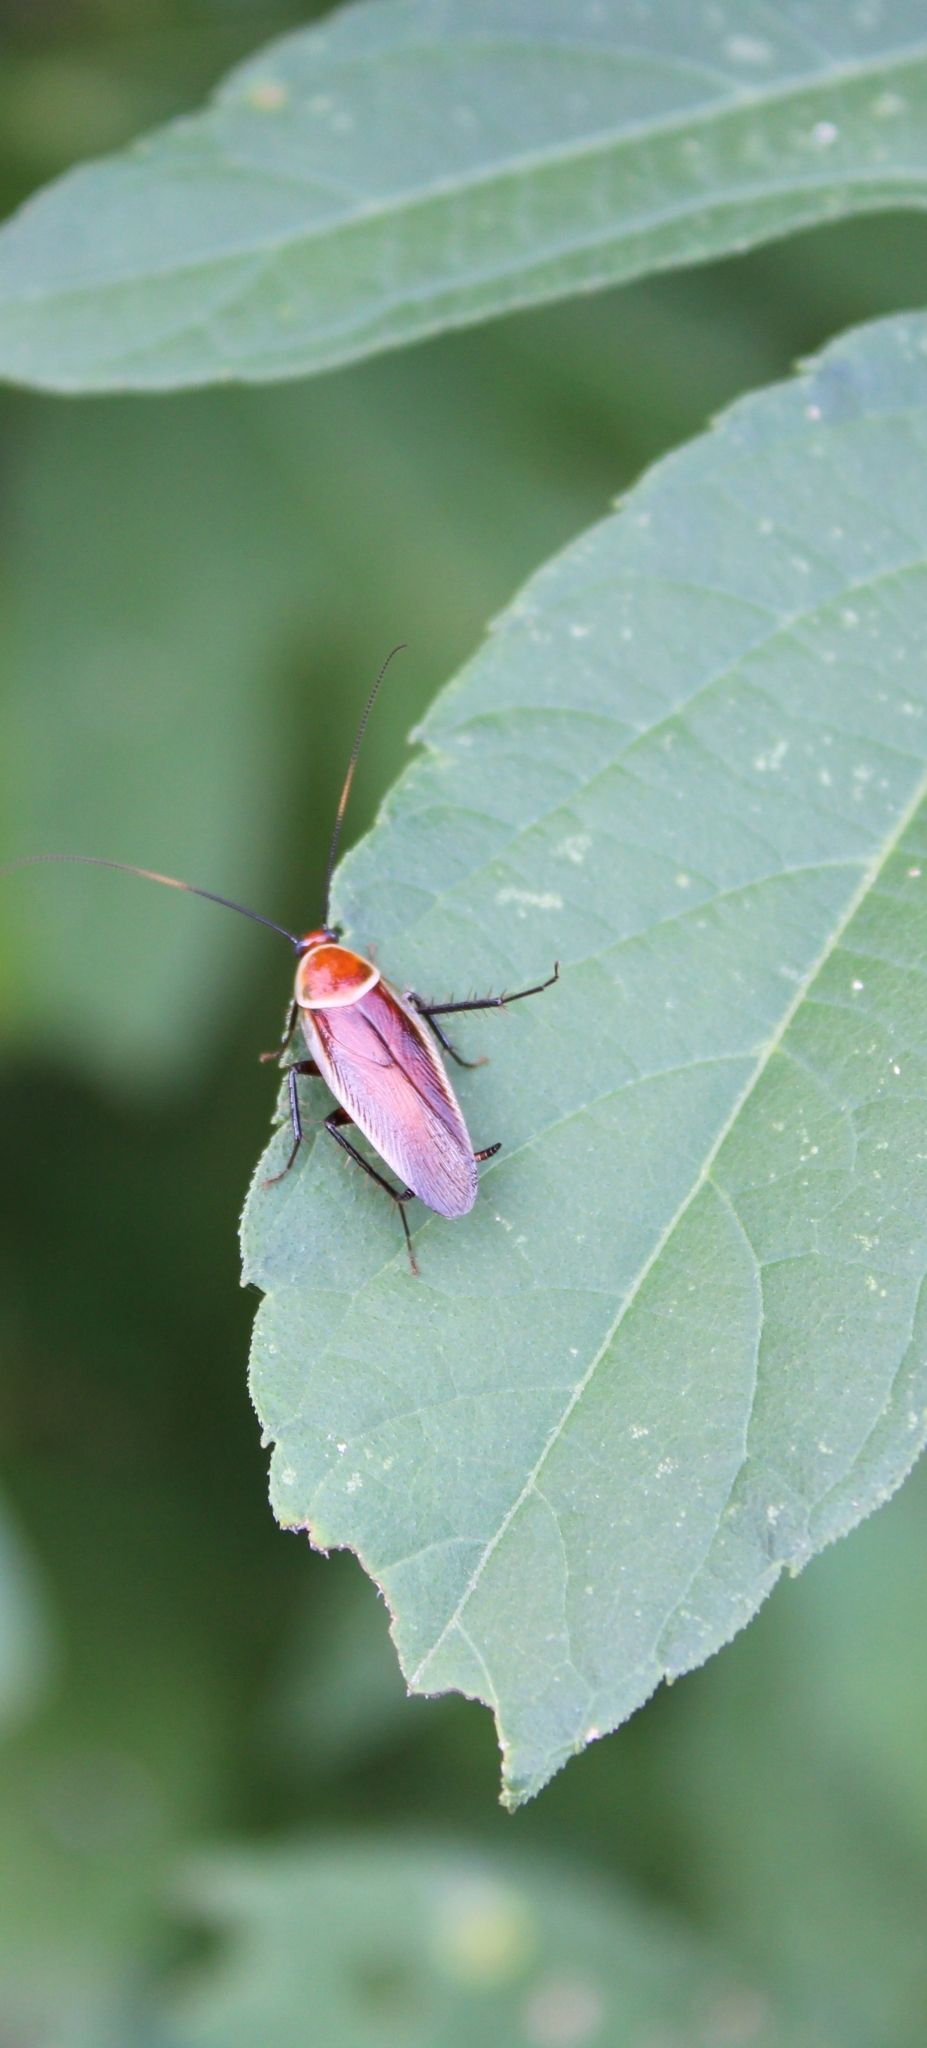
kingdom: Animalia
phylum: Arthropoda
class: Insecta
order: Blattodea
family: Ectobiidae
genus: Pseudomops
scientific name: Pseudomops septentrionalis
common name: Pale-bordered field cockroach
